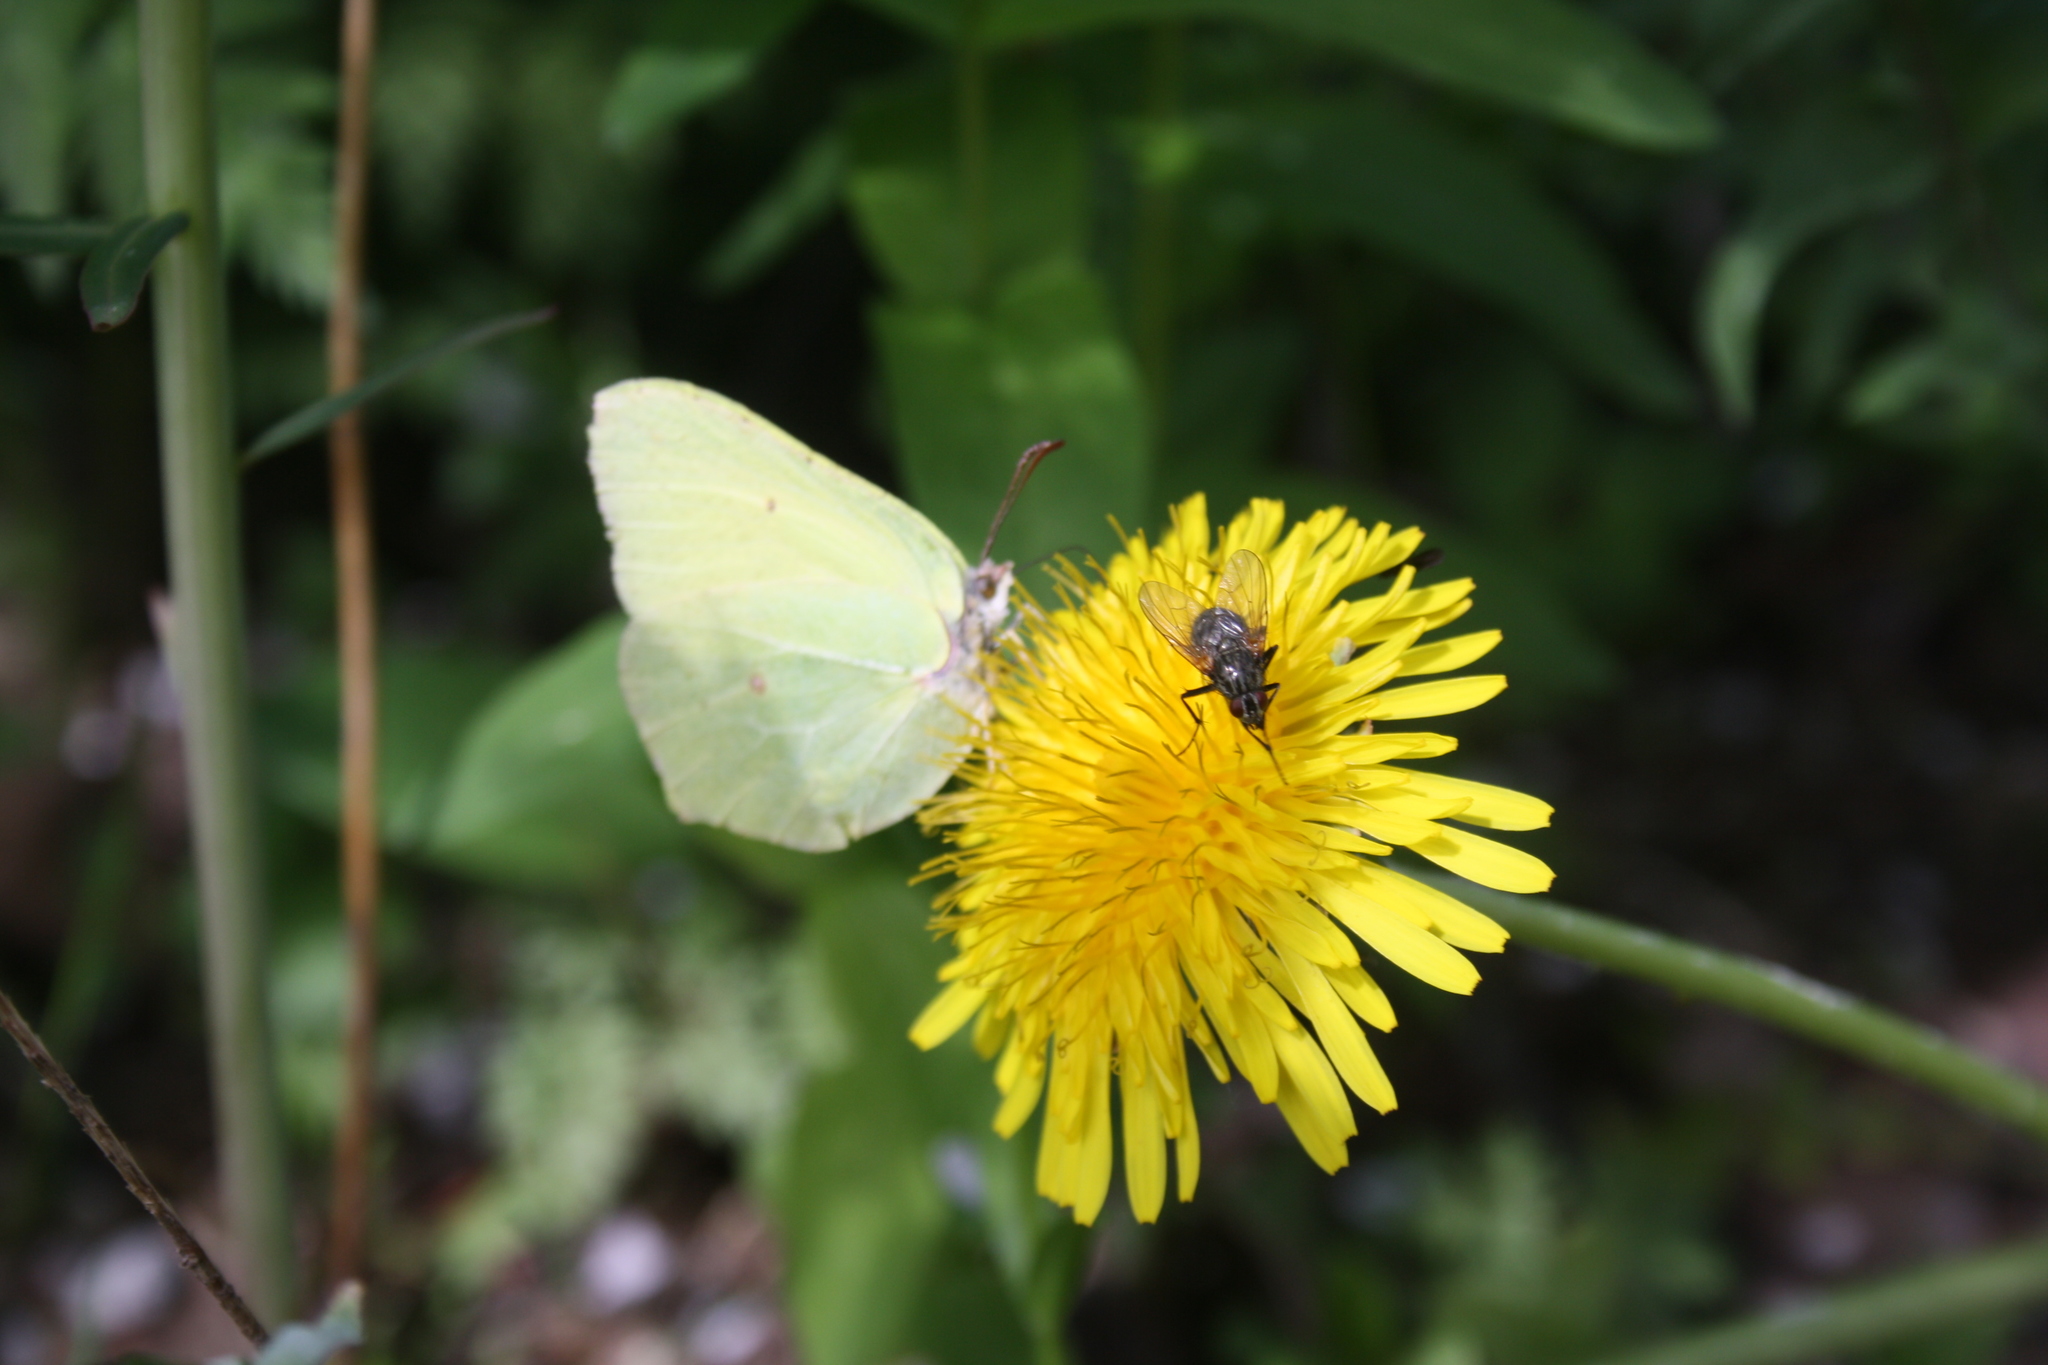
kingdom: Animalia
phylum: Arthropoda
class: Insecta
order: Lepidoptera
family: Pieridae
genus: Gonepteryx
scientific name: Gonepteryx rhamni
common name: Brimstone
